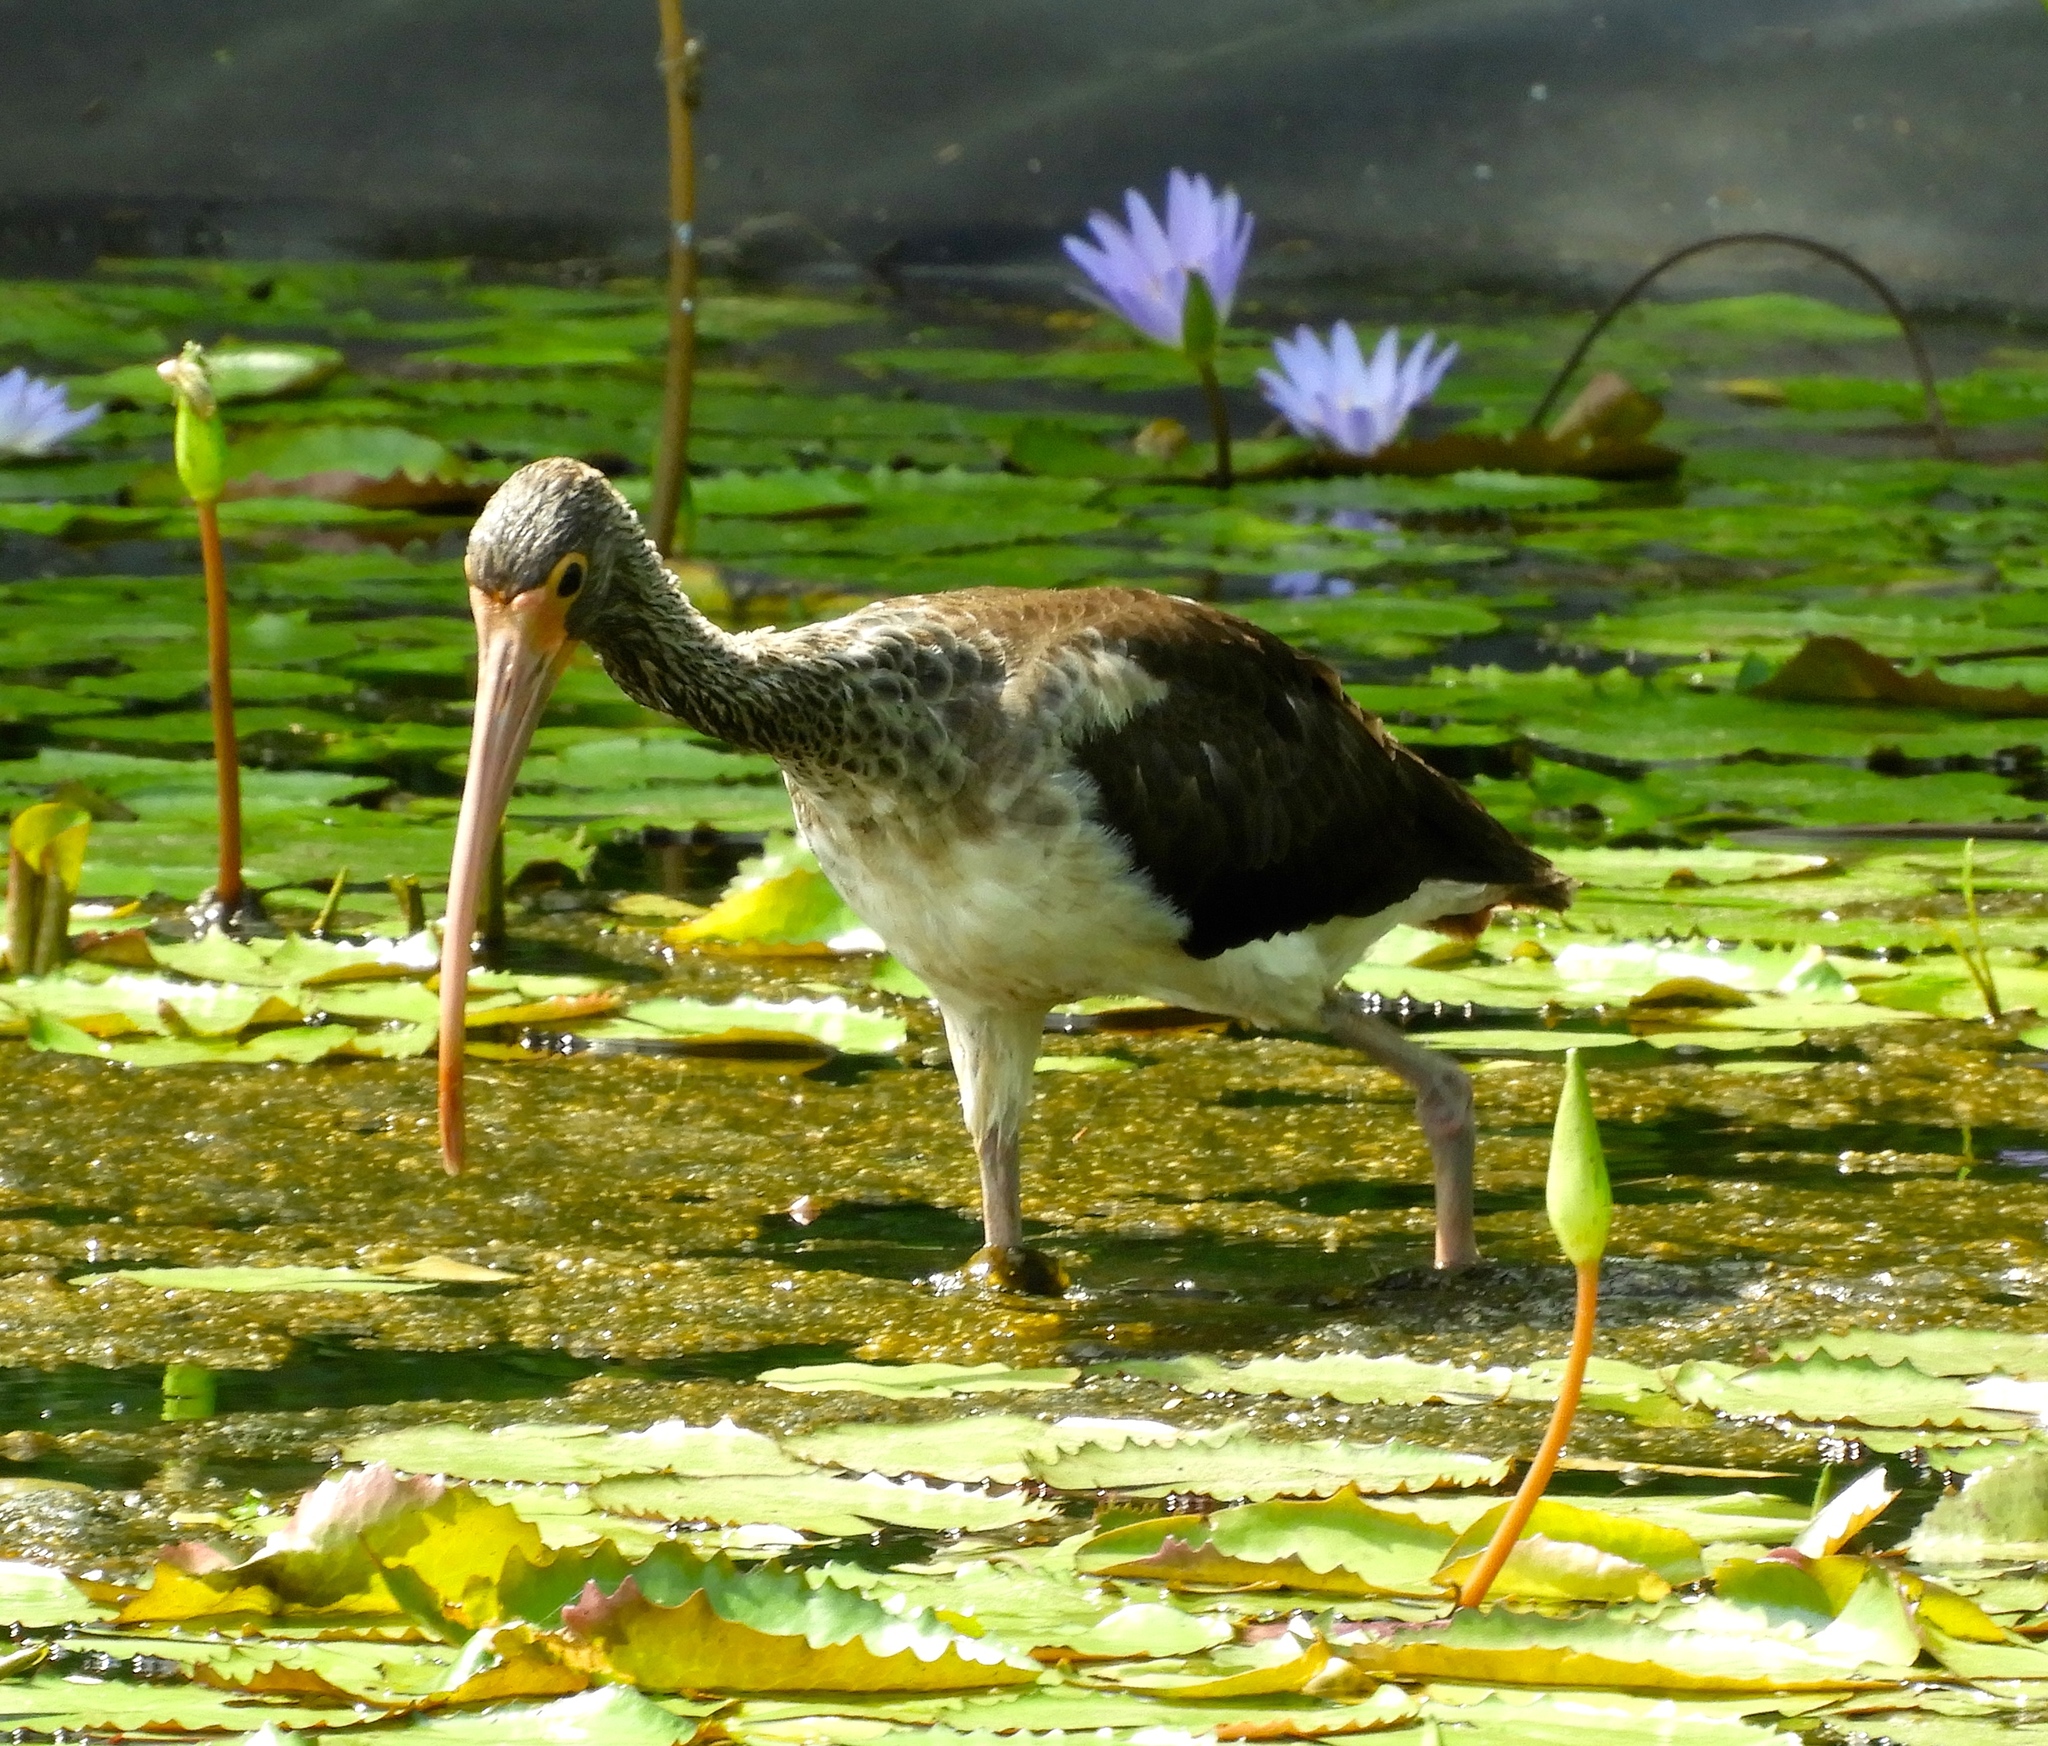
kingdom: Animalia
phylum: Chordata
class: Aves
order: Pelecaniformes
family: Threskiornithidae
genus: Eudocimus
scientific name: Eudocimus albus
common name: White ibis
